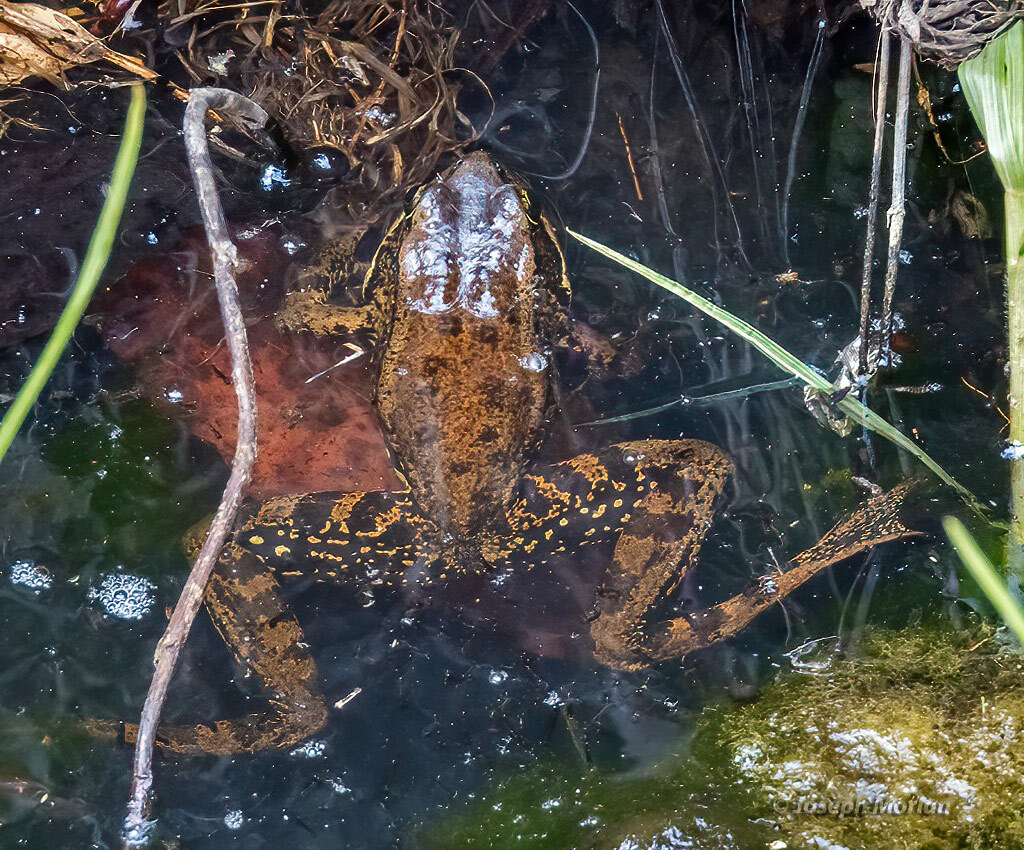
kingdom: Animalia
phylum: Chordata
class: Amphibia
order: Anura
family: Ranidae
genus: Rana
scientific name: Rana draytonii
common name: California red-legged frog
